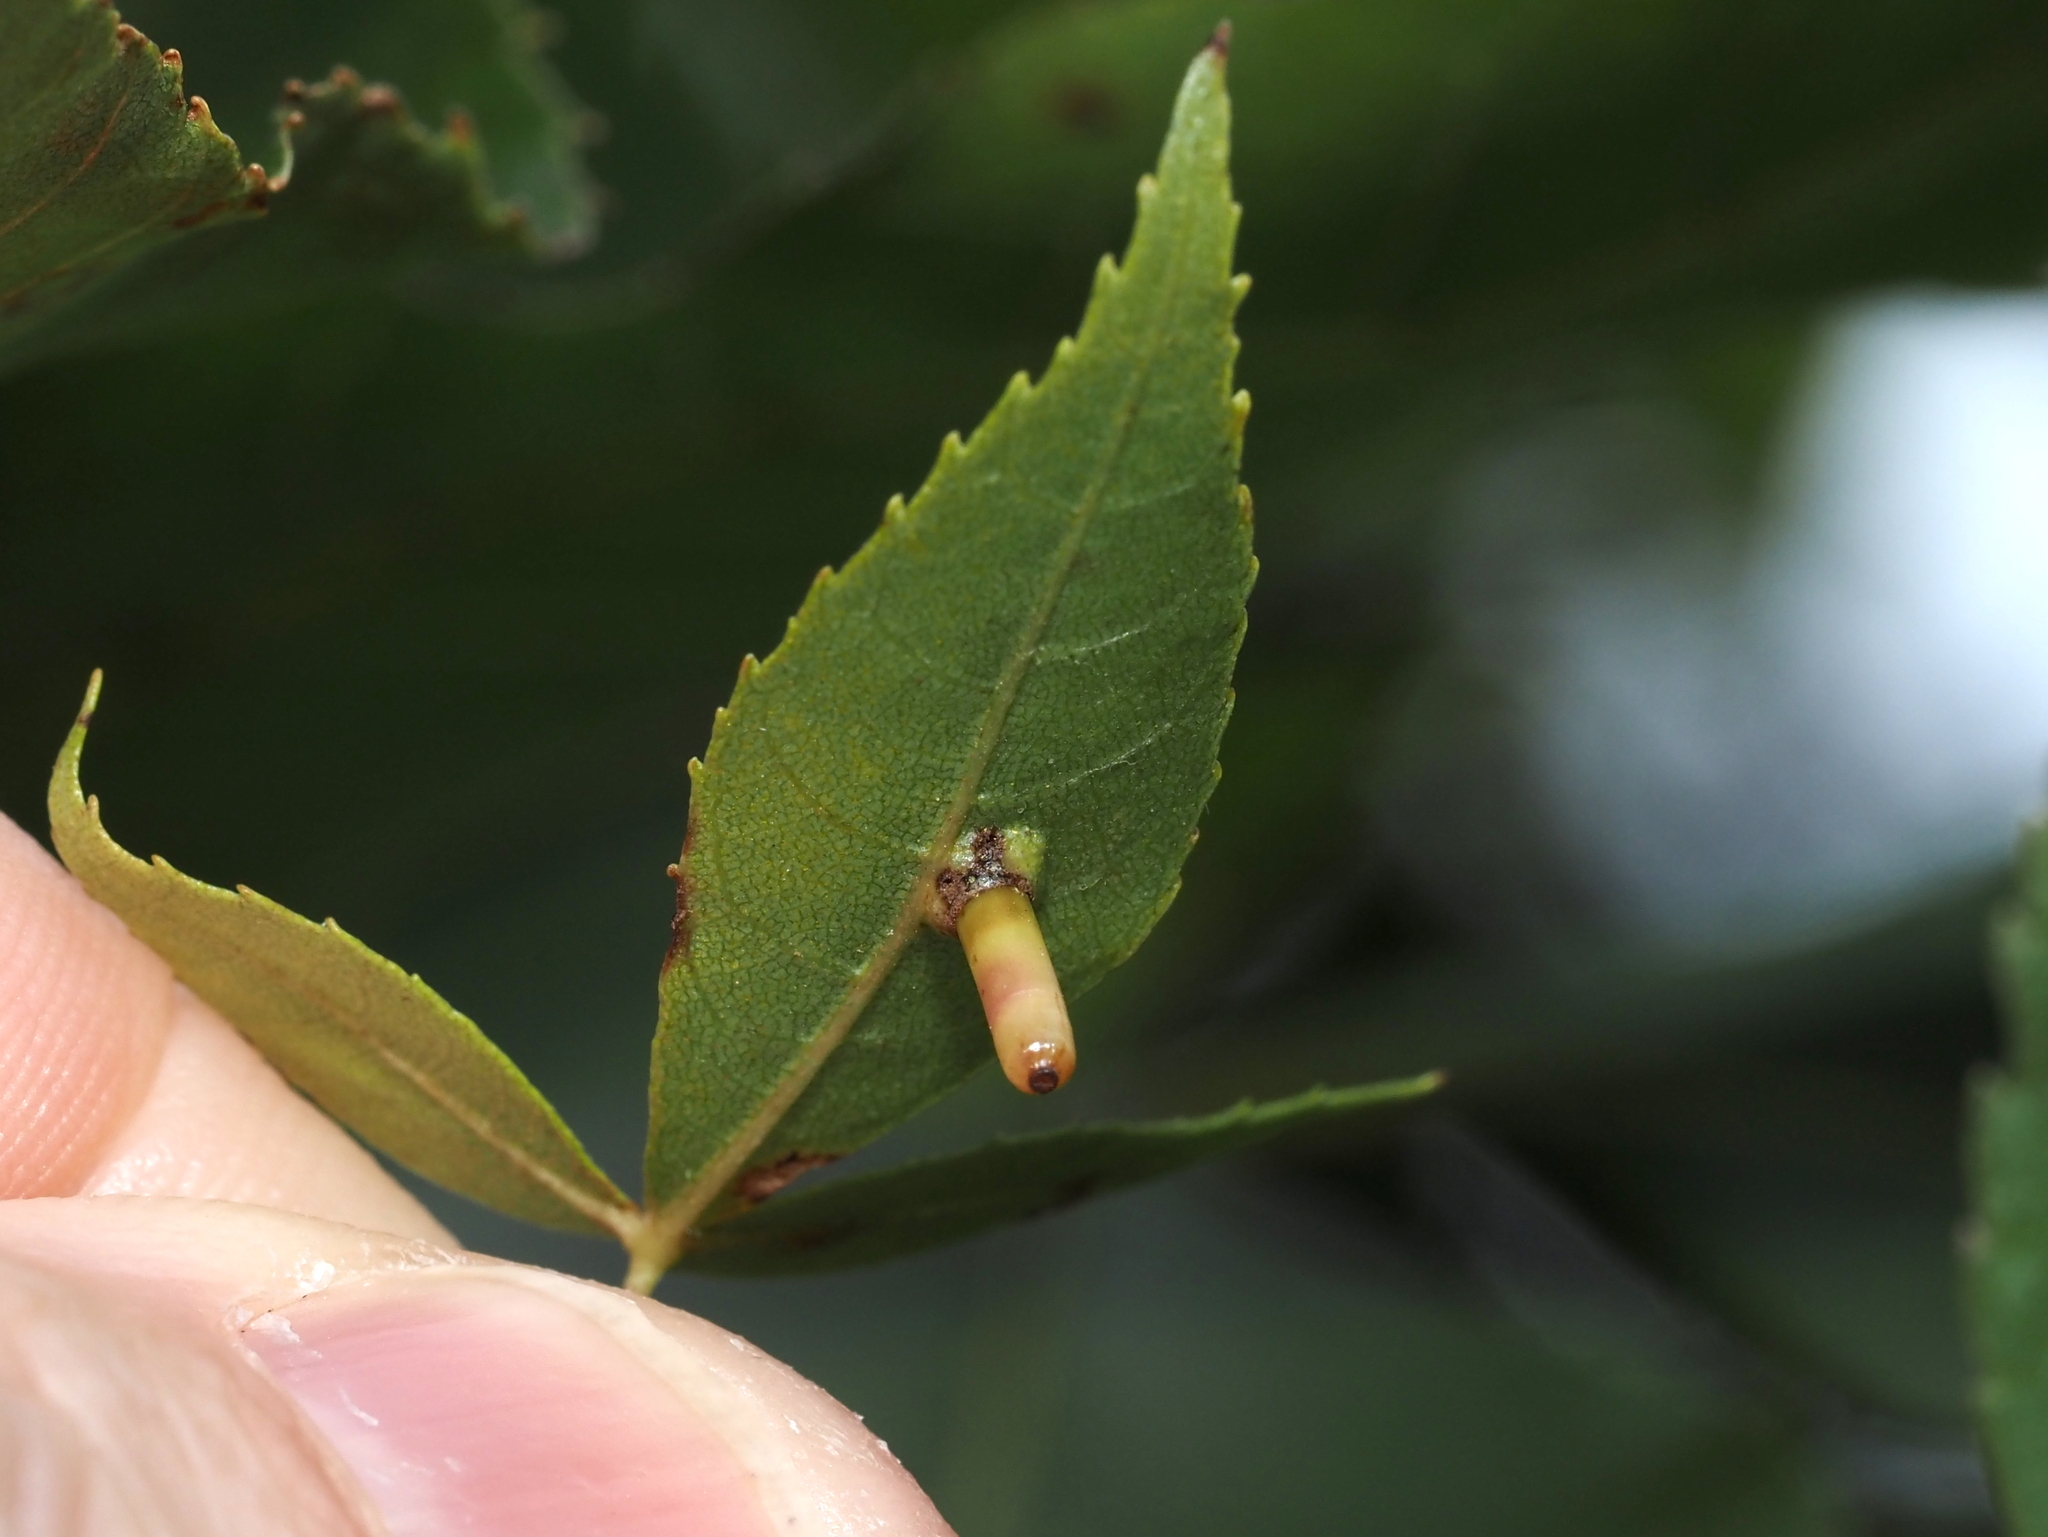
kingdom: Animalia
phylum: Arthropoda
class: Insecta
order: Diptera
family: Cecidomyiidae
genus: Caryomyia
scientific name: Caryomyia tubicola
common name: Hickory bullet gall midge
